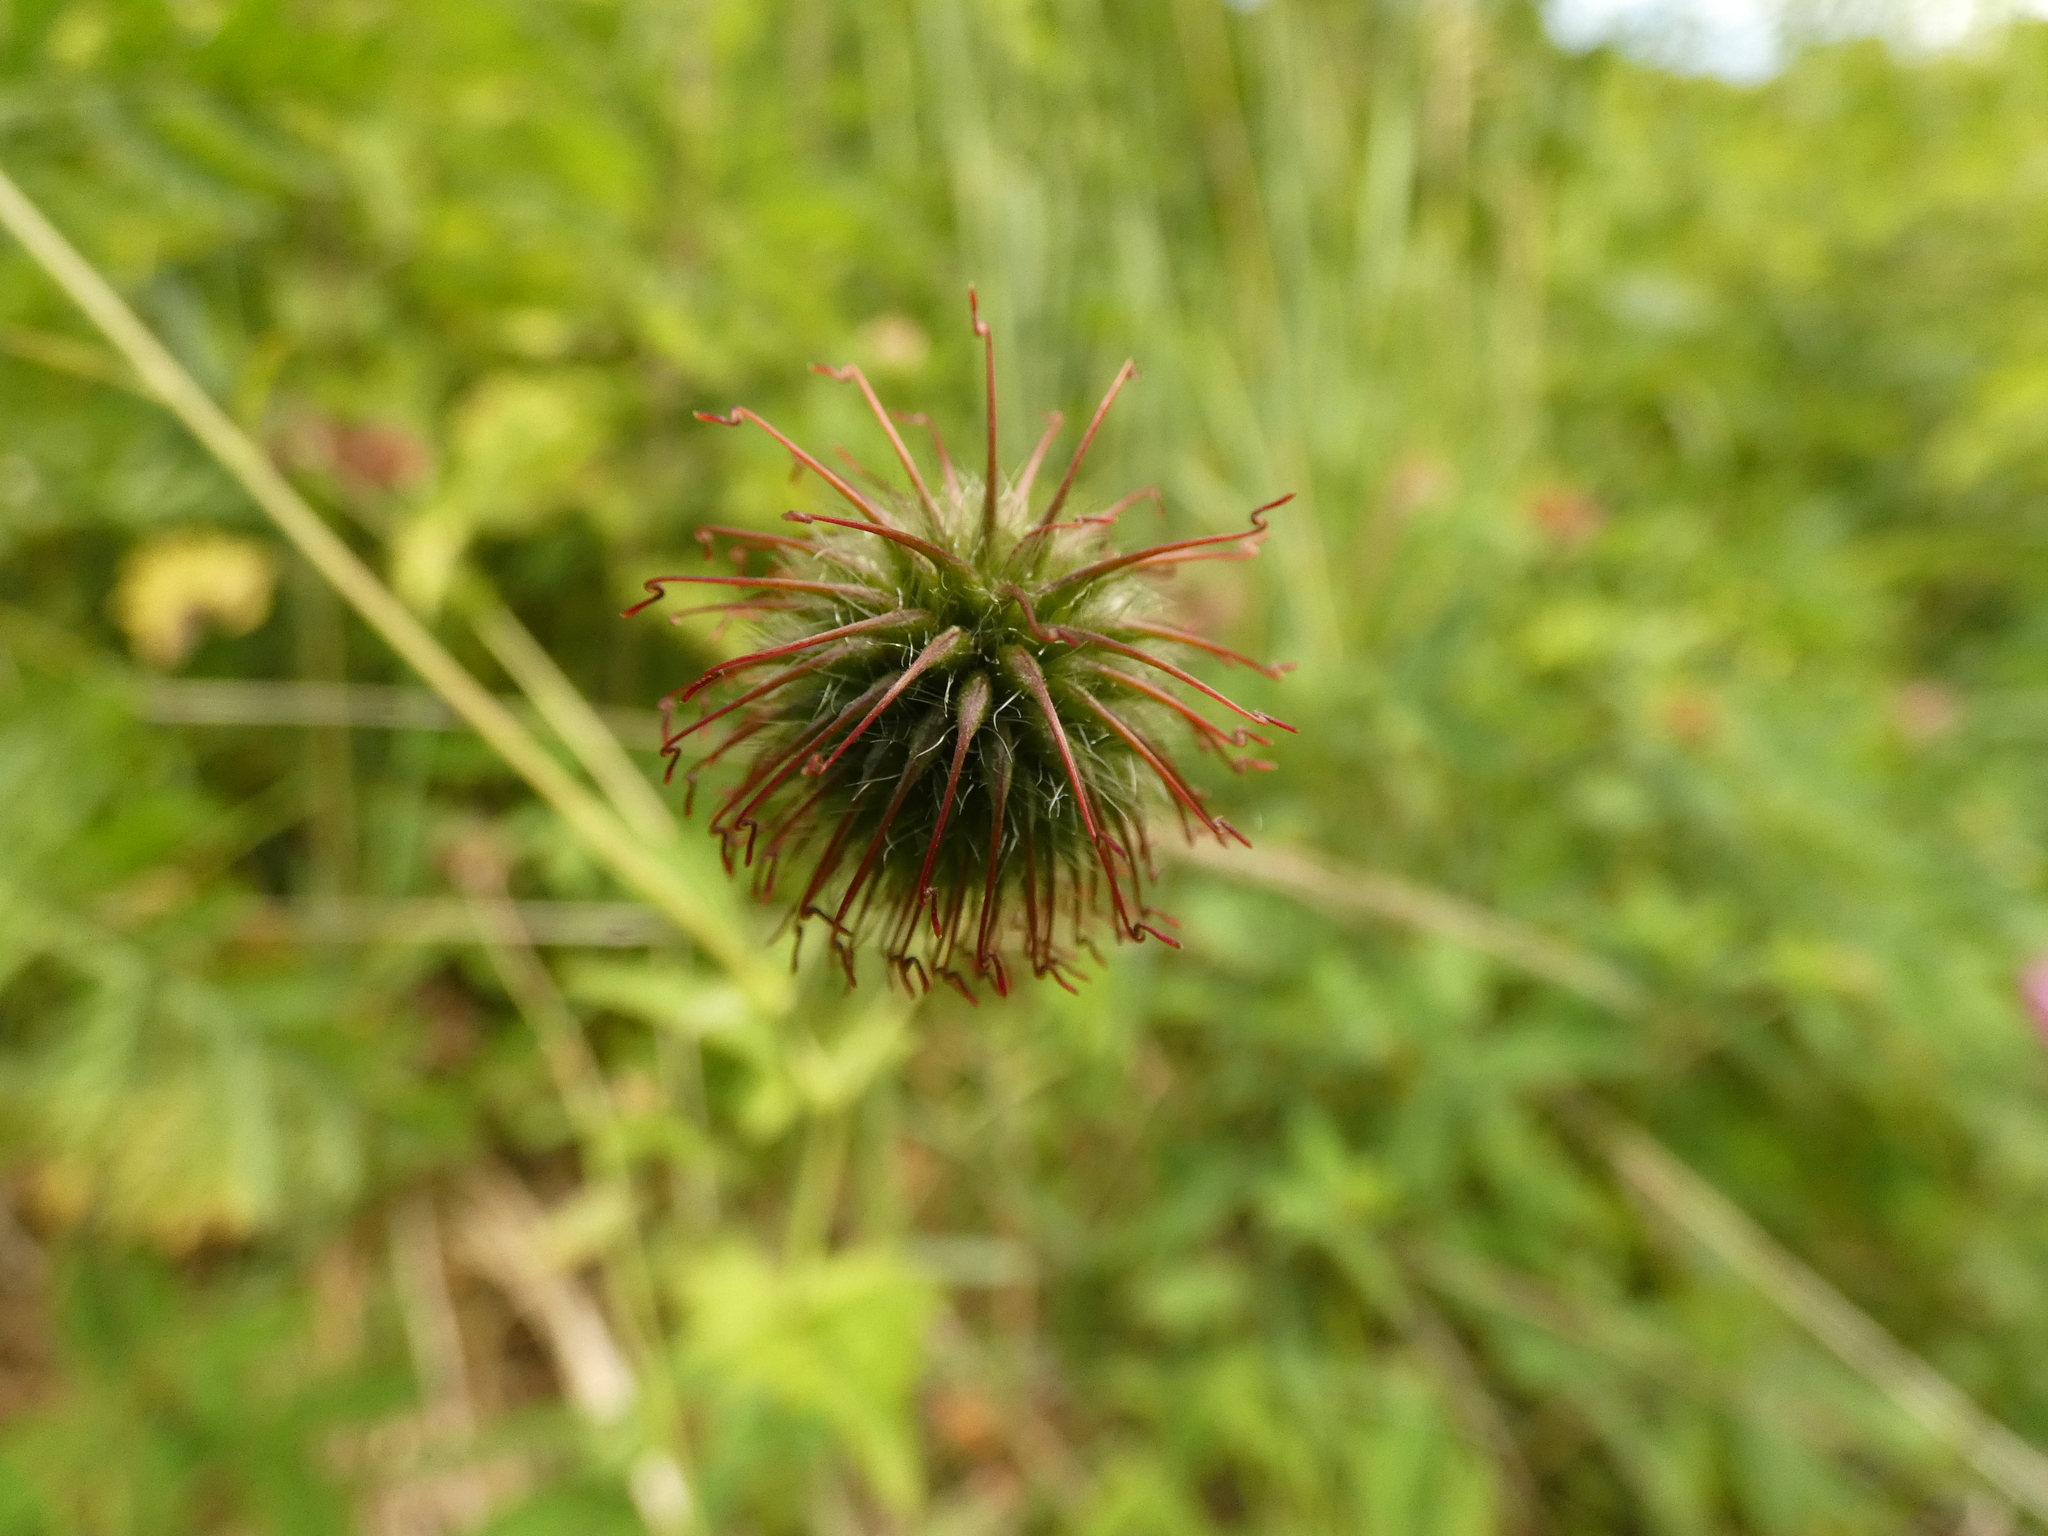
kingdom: Plantae
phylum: Tracheophyta
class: Magnoliopsida
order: Rosales
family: Rosaceae
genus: Geum
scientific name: Geum urbanum
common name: Wood avens
